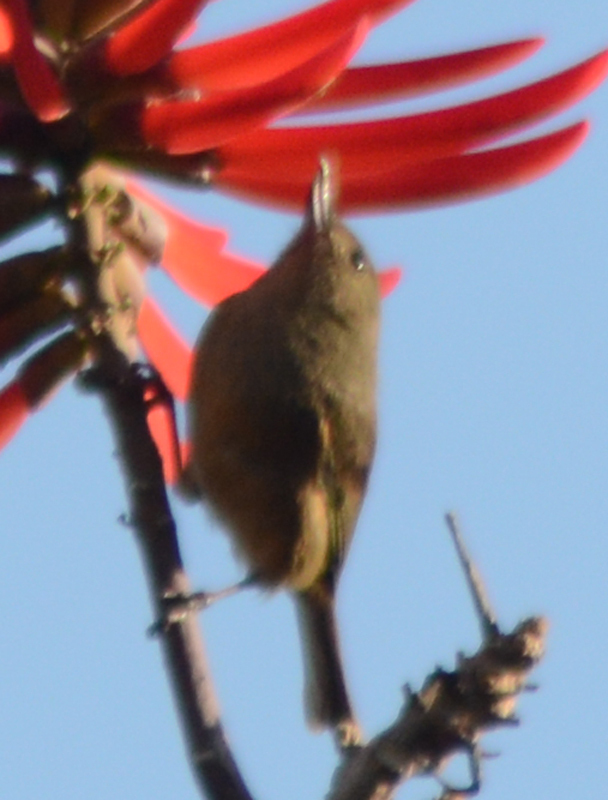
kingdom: Animalia
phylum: Chordata
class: Aves
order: Passeriformes
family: Thraupidae
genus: Diglossa
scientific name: Diglossa baritula
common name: Cinnamon-bellied flowerpiercer
